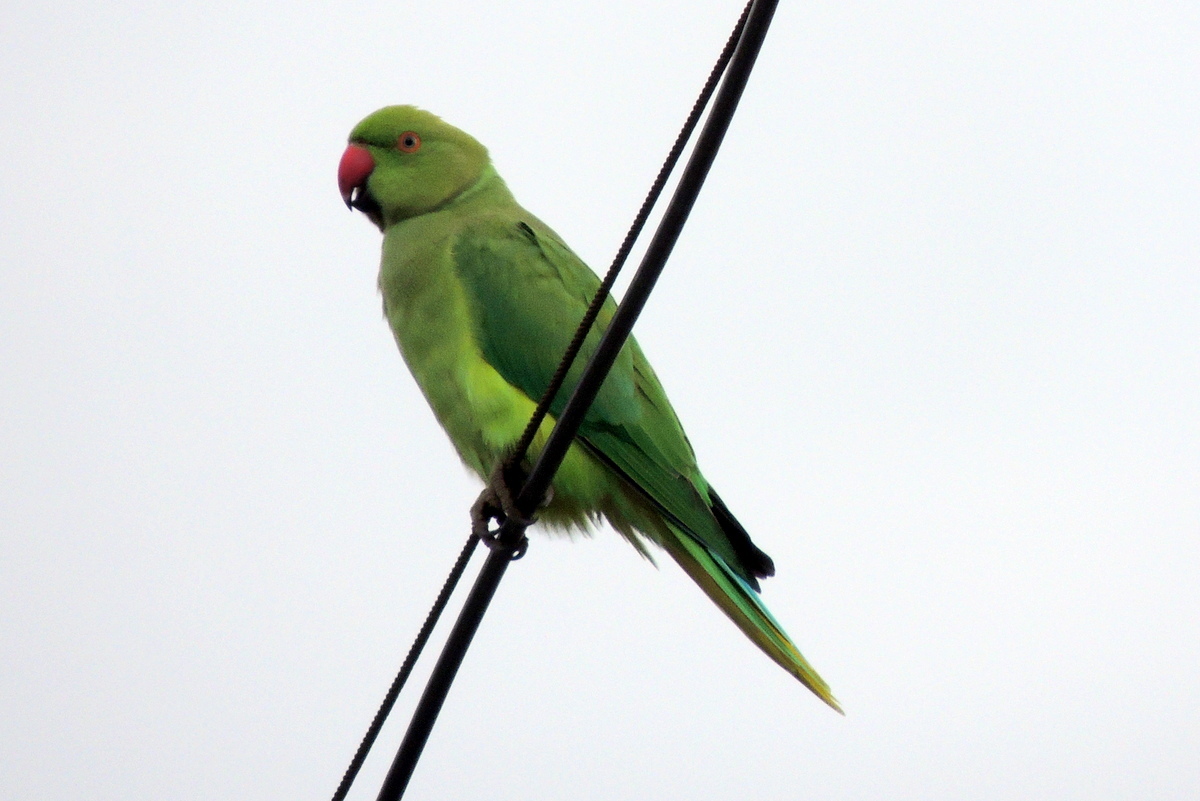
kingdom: Animalia
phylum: Chordata
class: Aves
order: Psittaciformes
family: Psittacidae
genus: Psittacula
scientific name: Psittacula krameri
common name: Rose-ringed parakeet
